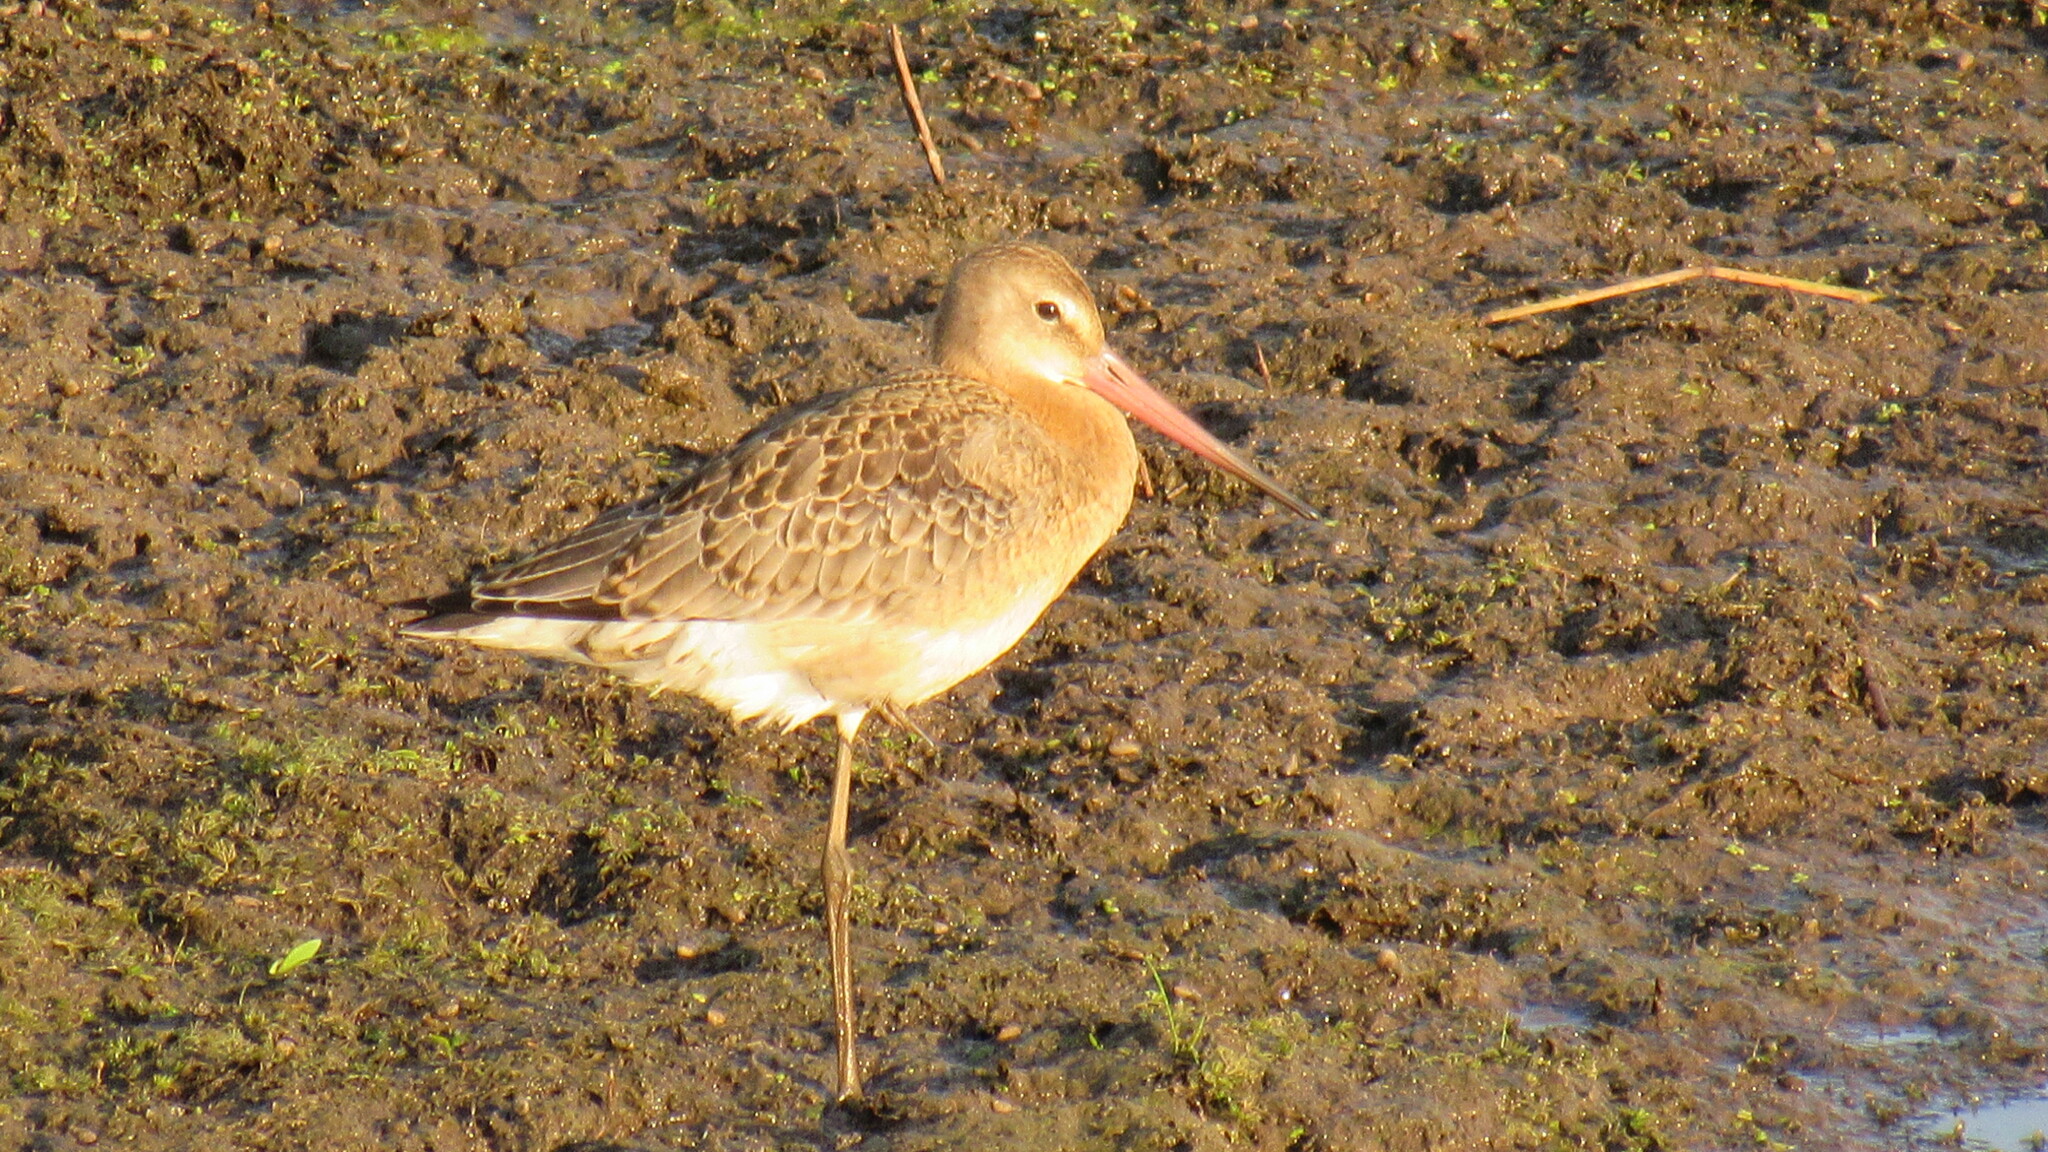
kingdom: Animalia
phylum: Chordata
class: Aves
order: Charadriiformes
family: Scolopacidae
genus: Limosa
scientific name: Limosa limosa
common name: Black-tailed godwit
